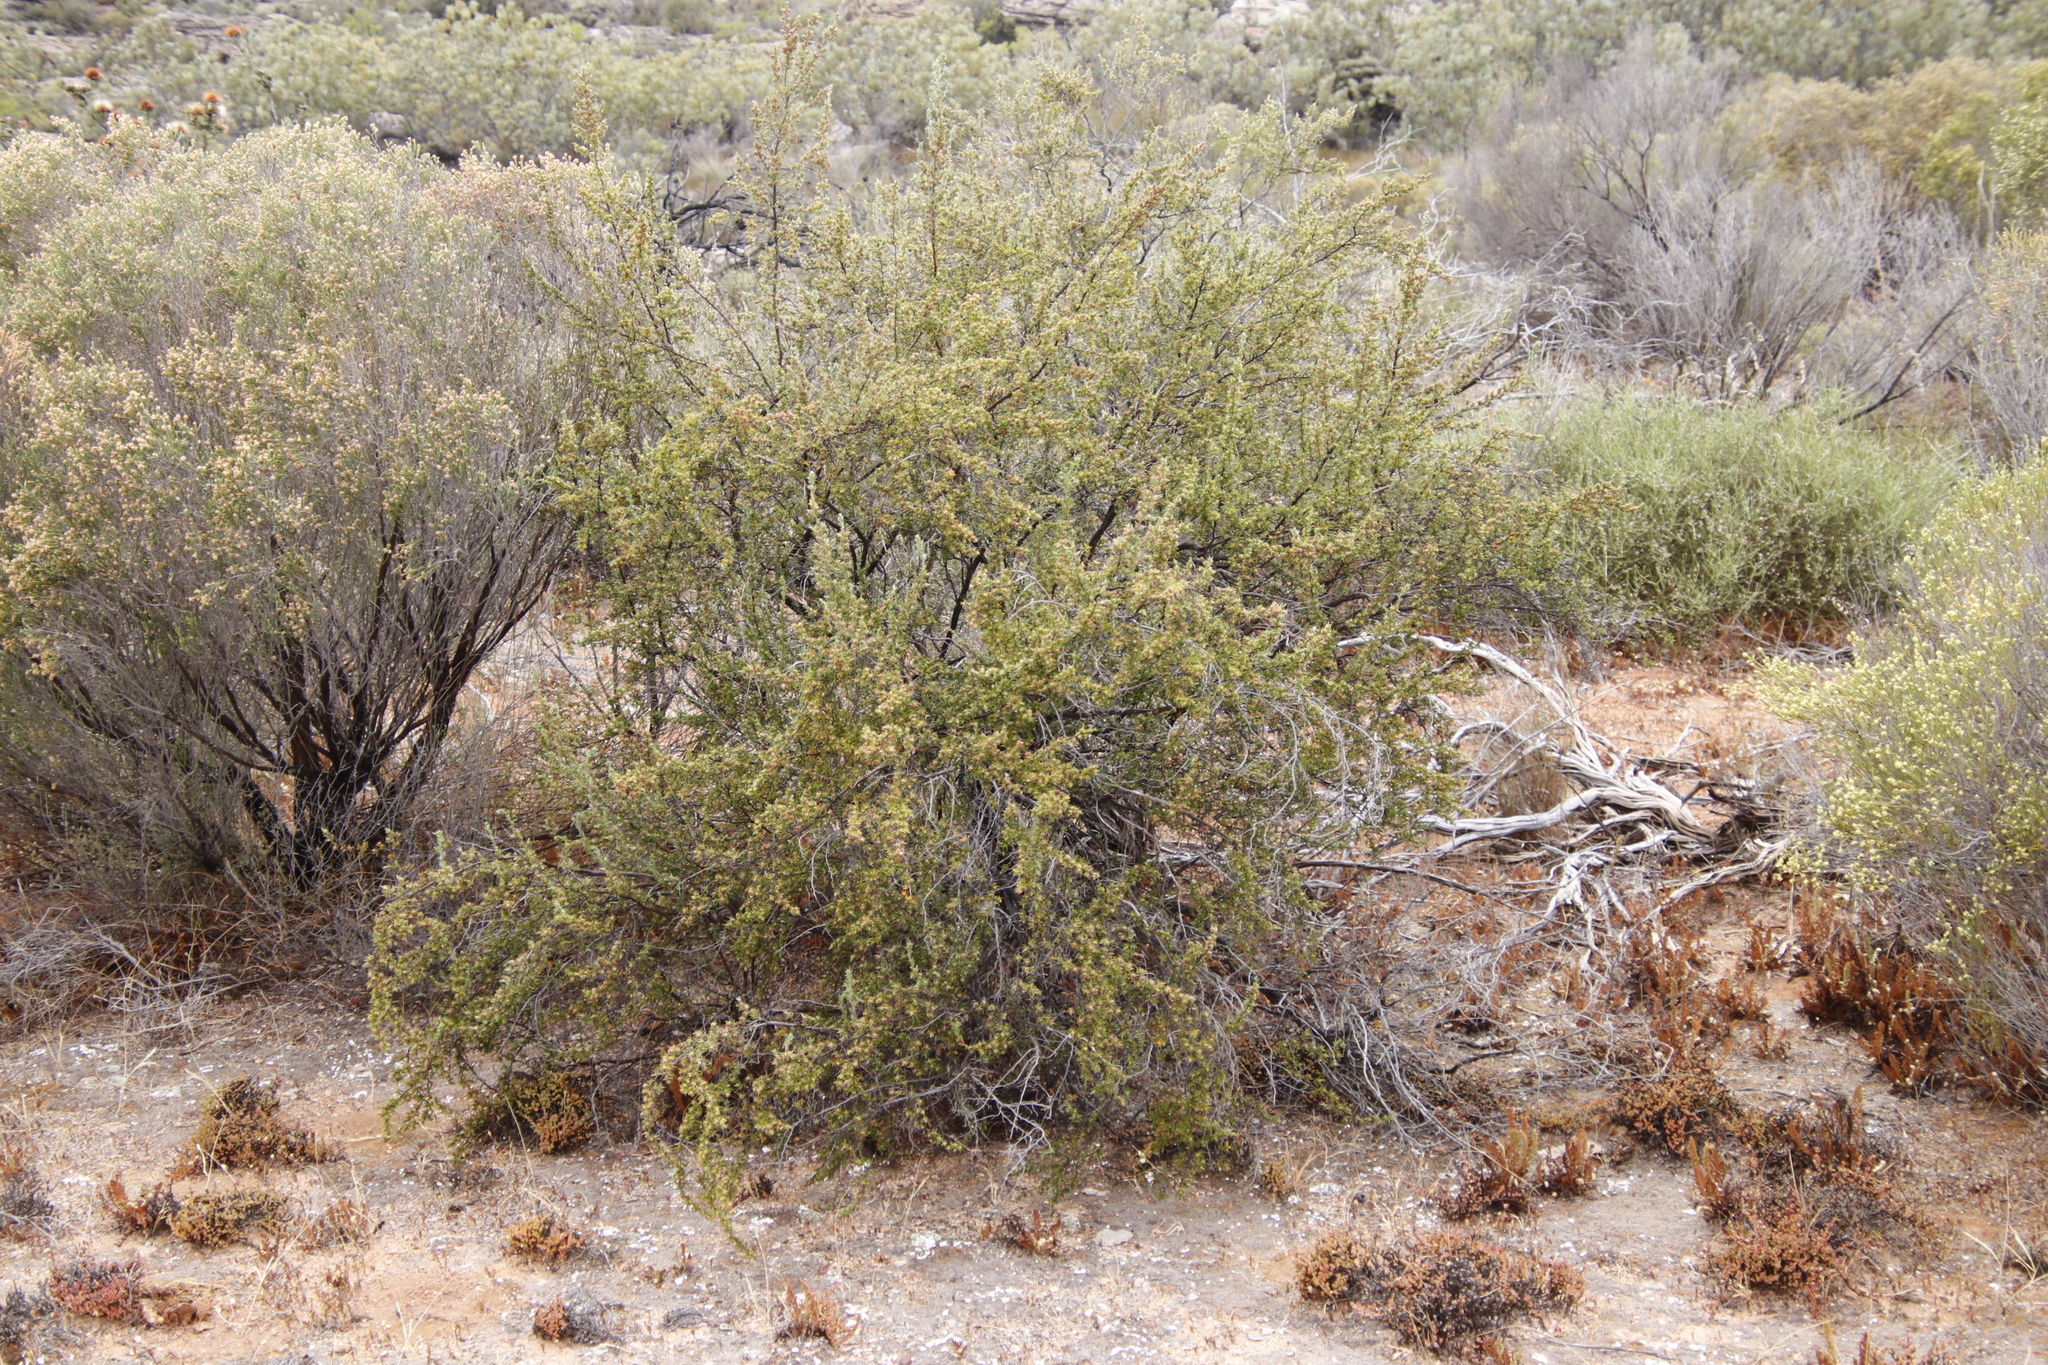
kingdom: Plantae
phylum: Tracheophyta
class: Magnoliopsida
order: Rosales
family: Rosaceae
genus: Cliffortia
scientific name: Cliffortia ruscifolia
